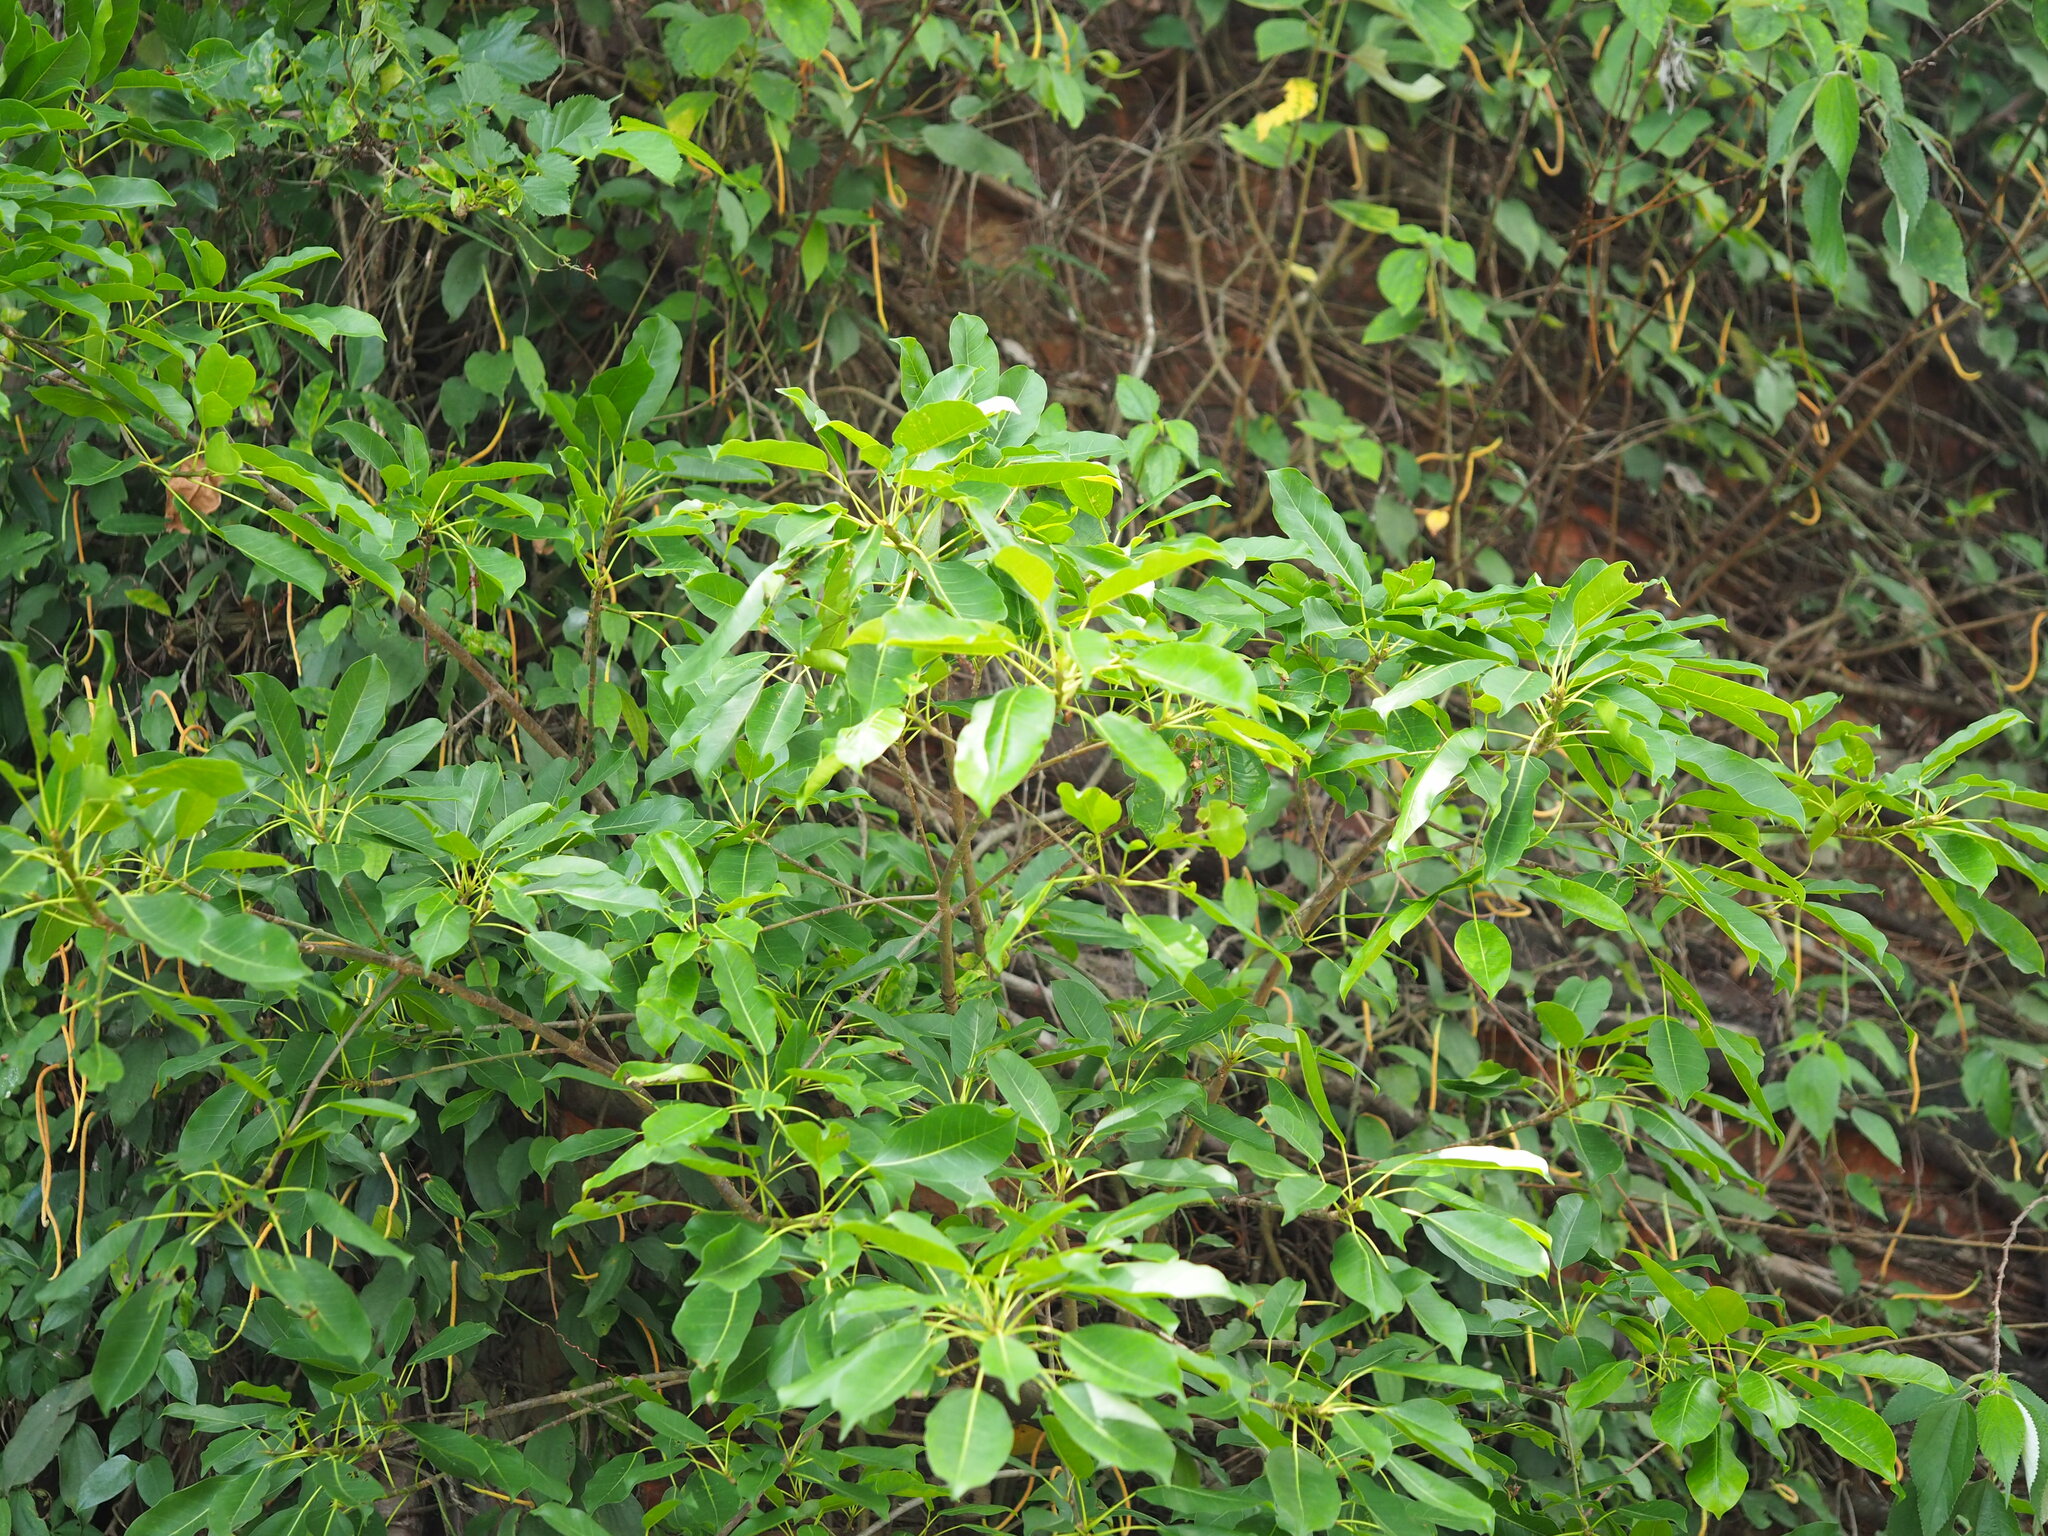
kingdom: Plantae
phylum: Tracheophyta
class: Magnoliopsida
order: Rosales
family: Moraceae
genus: Ficus
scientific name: Ficus subpisocarpa
